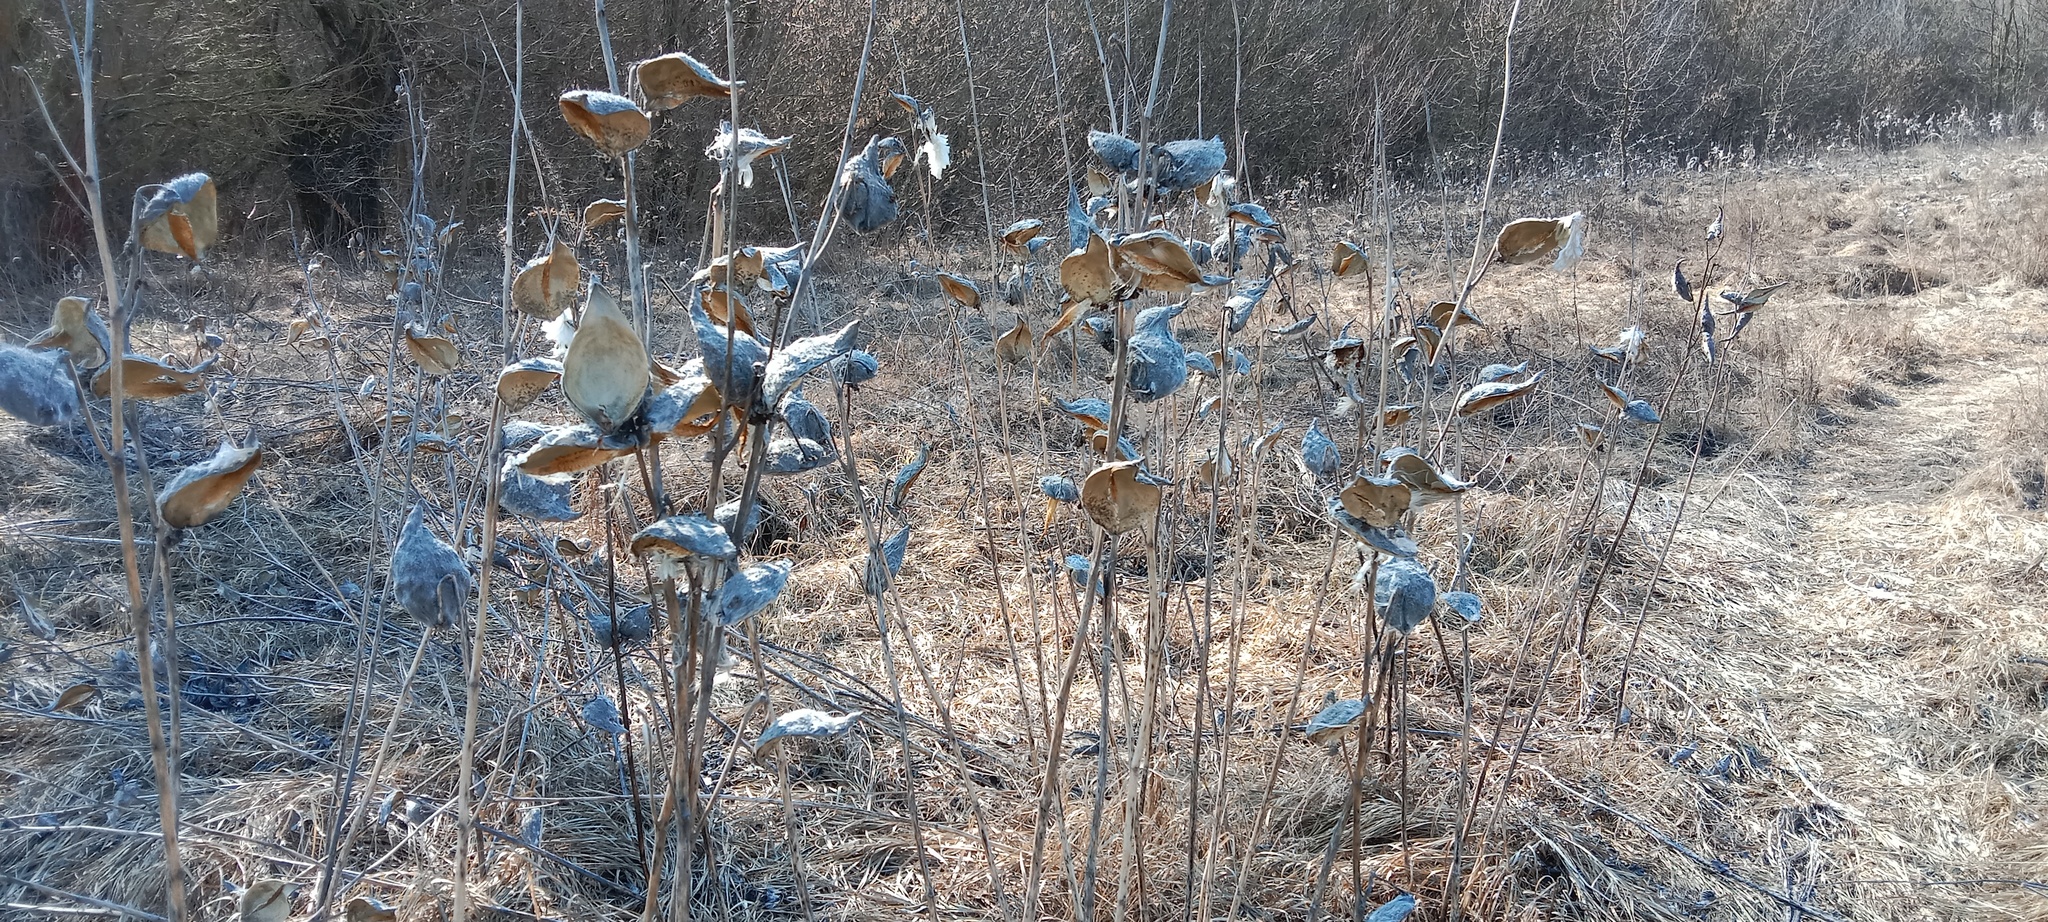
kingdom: Plantae
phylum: Tracheophyta
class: Magnoliopsida
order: Gentianales
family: Apocynaceae
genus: Asclepias
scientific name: Asclepias syriaca
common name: Common milkweed
